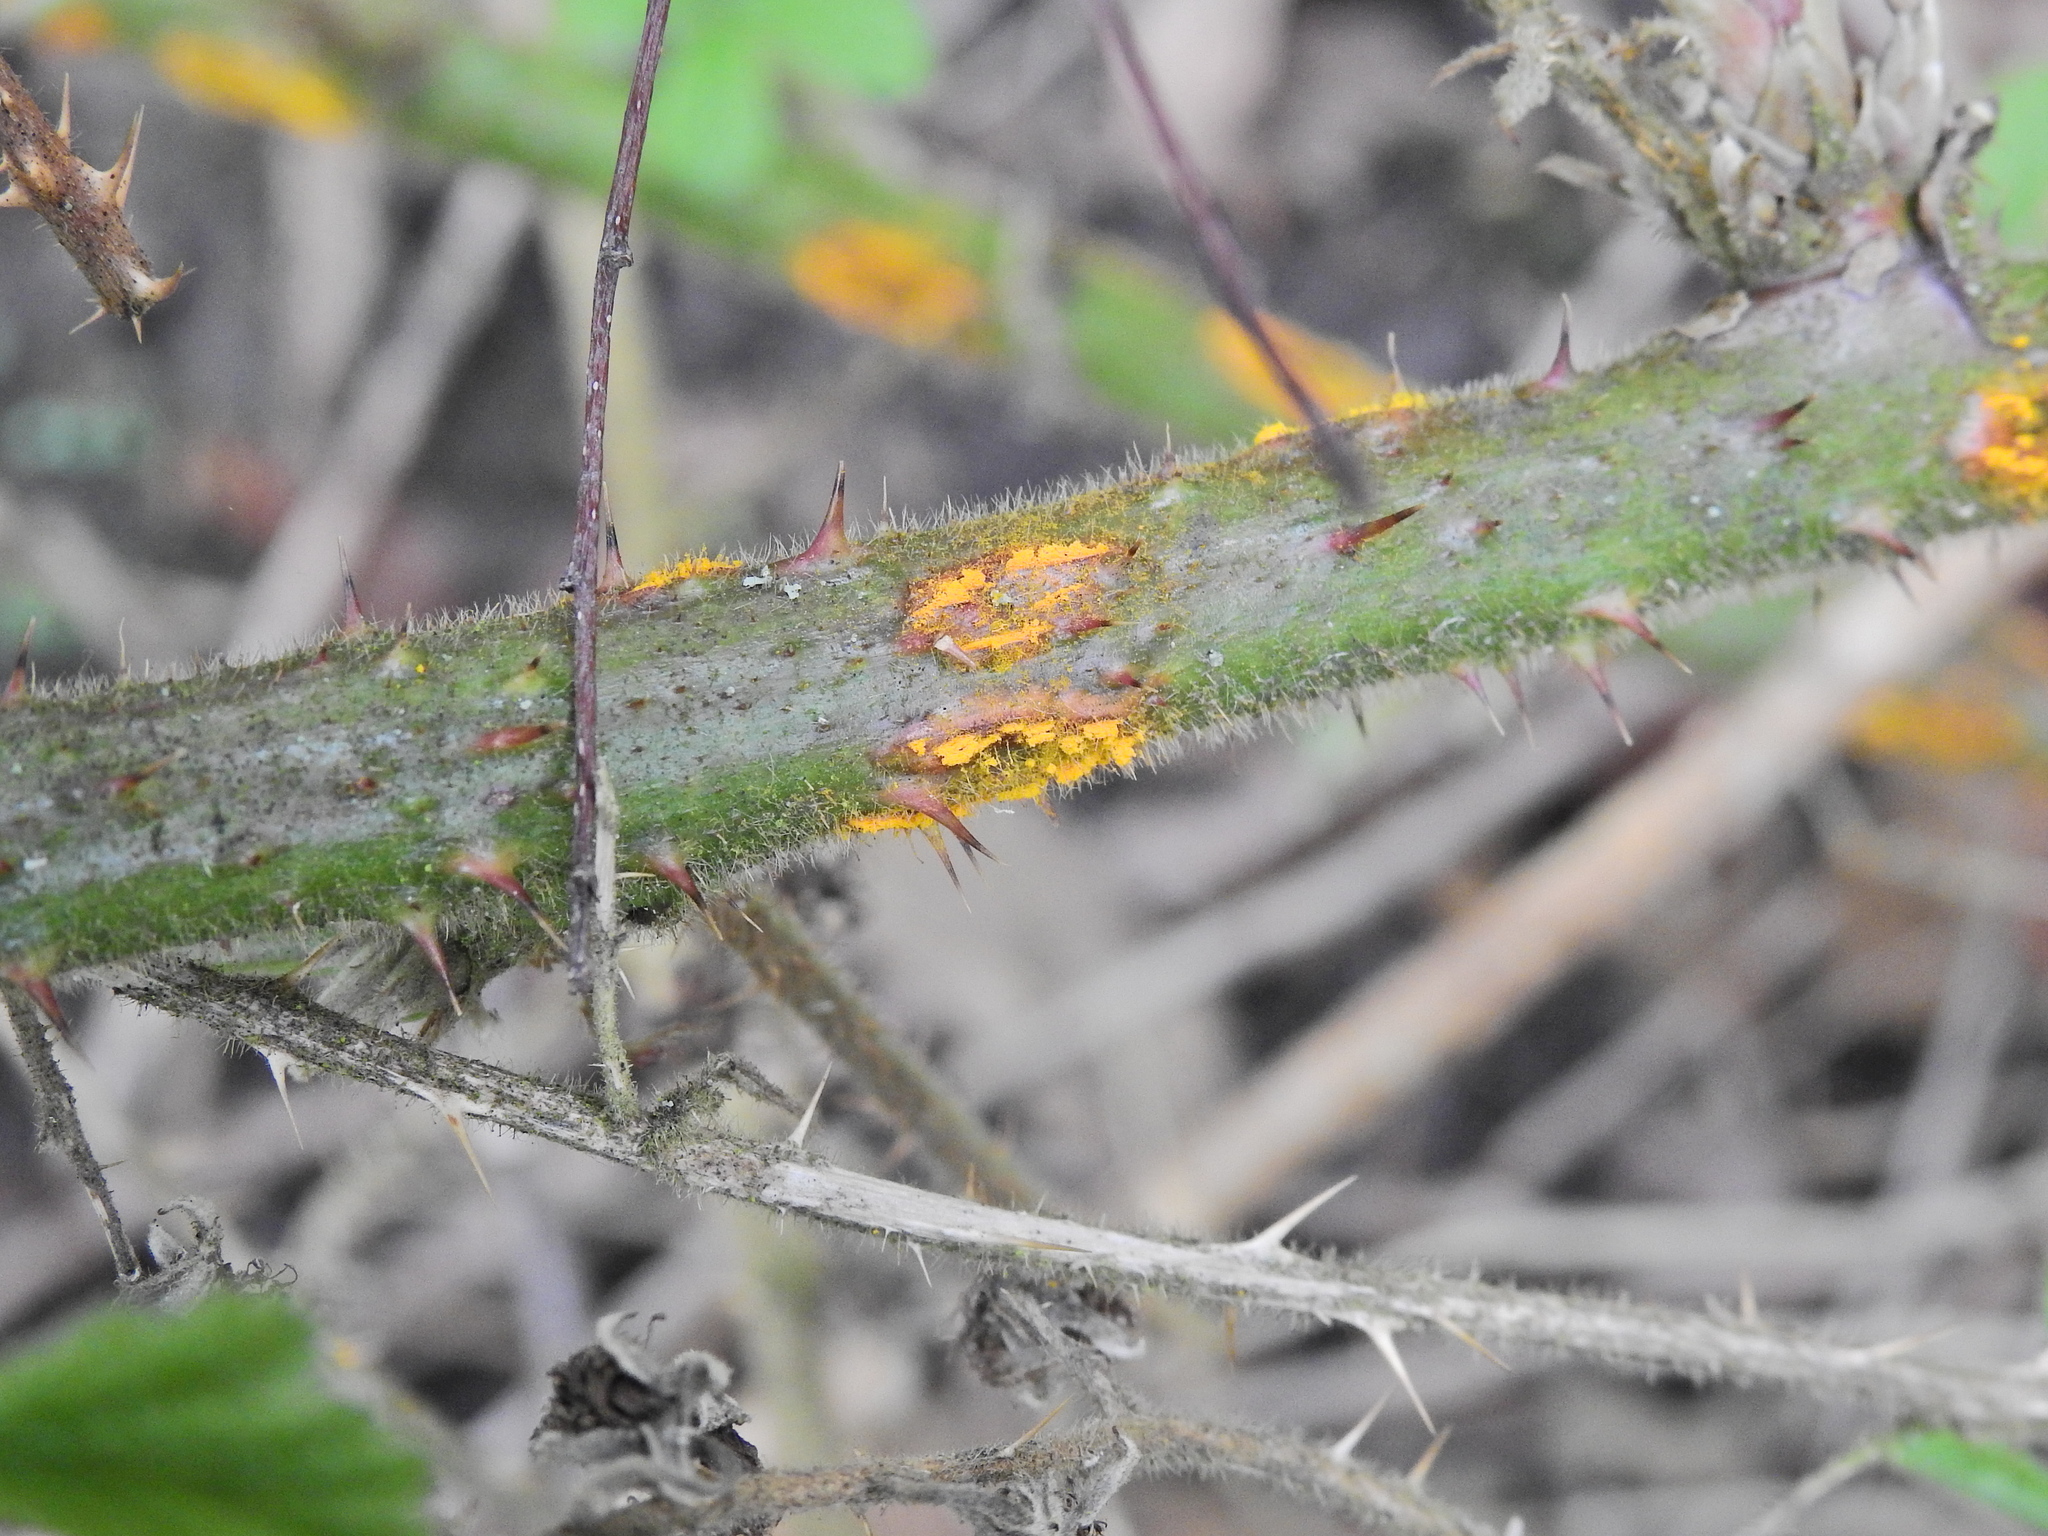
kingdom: Fungi
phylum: Basidiomycota
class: Pucciniomycetes
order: Pucciniales
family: Phragmidiaceae
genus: Kuehneola
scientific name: Kuehneola uredinis
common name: Bramble stem rust
